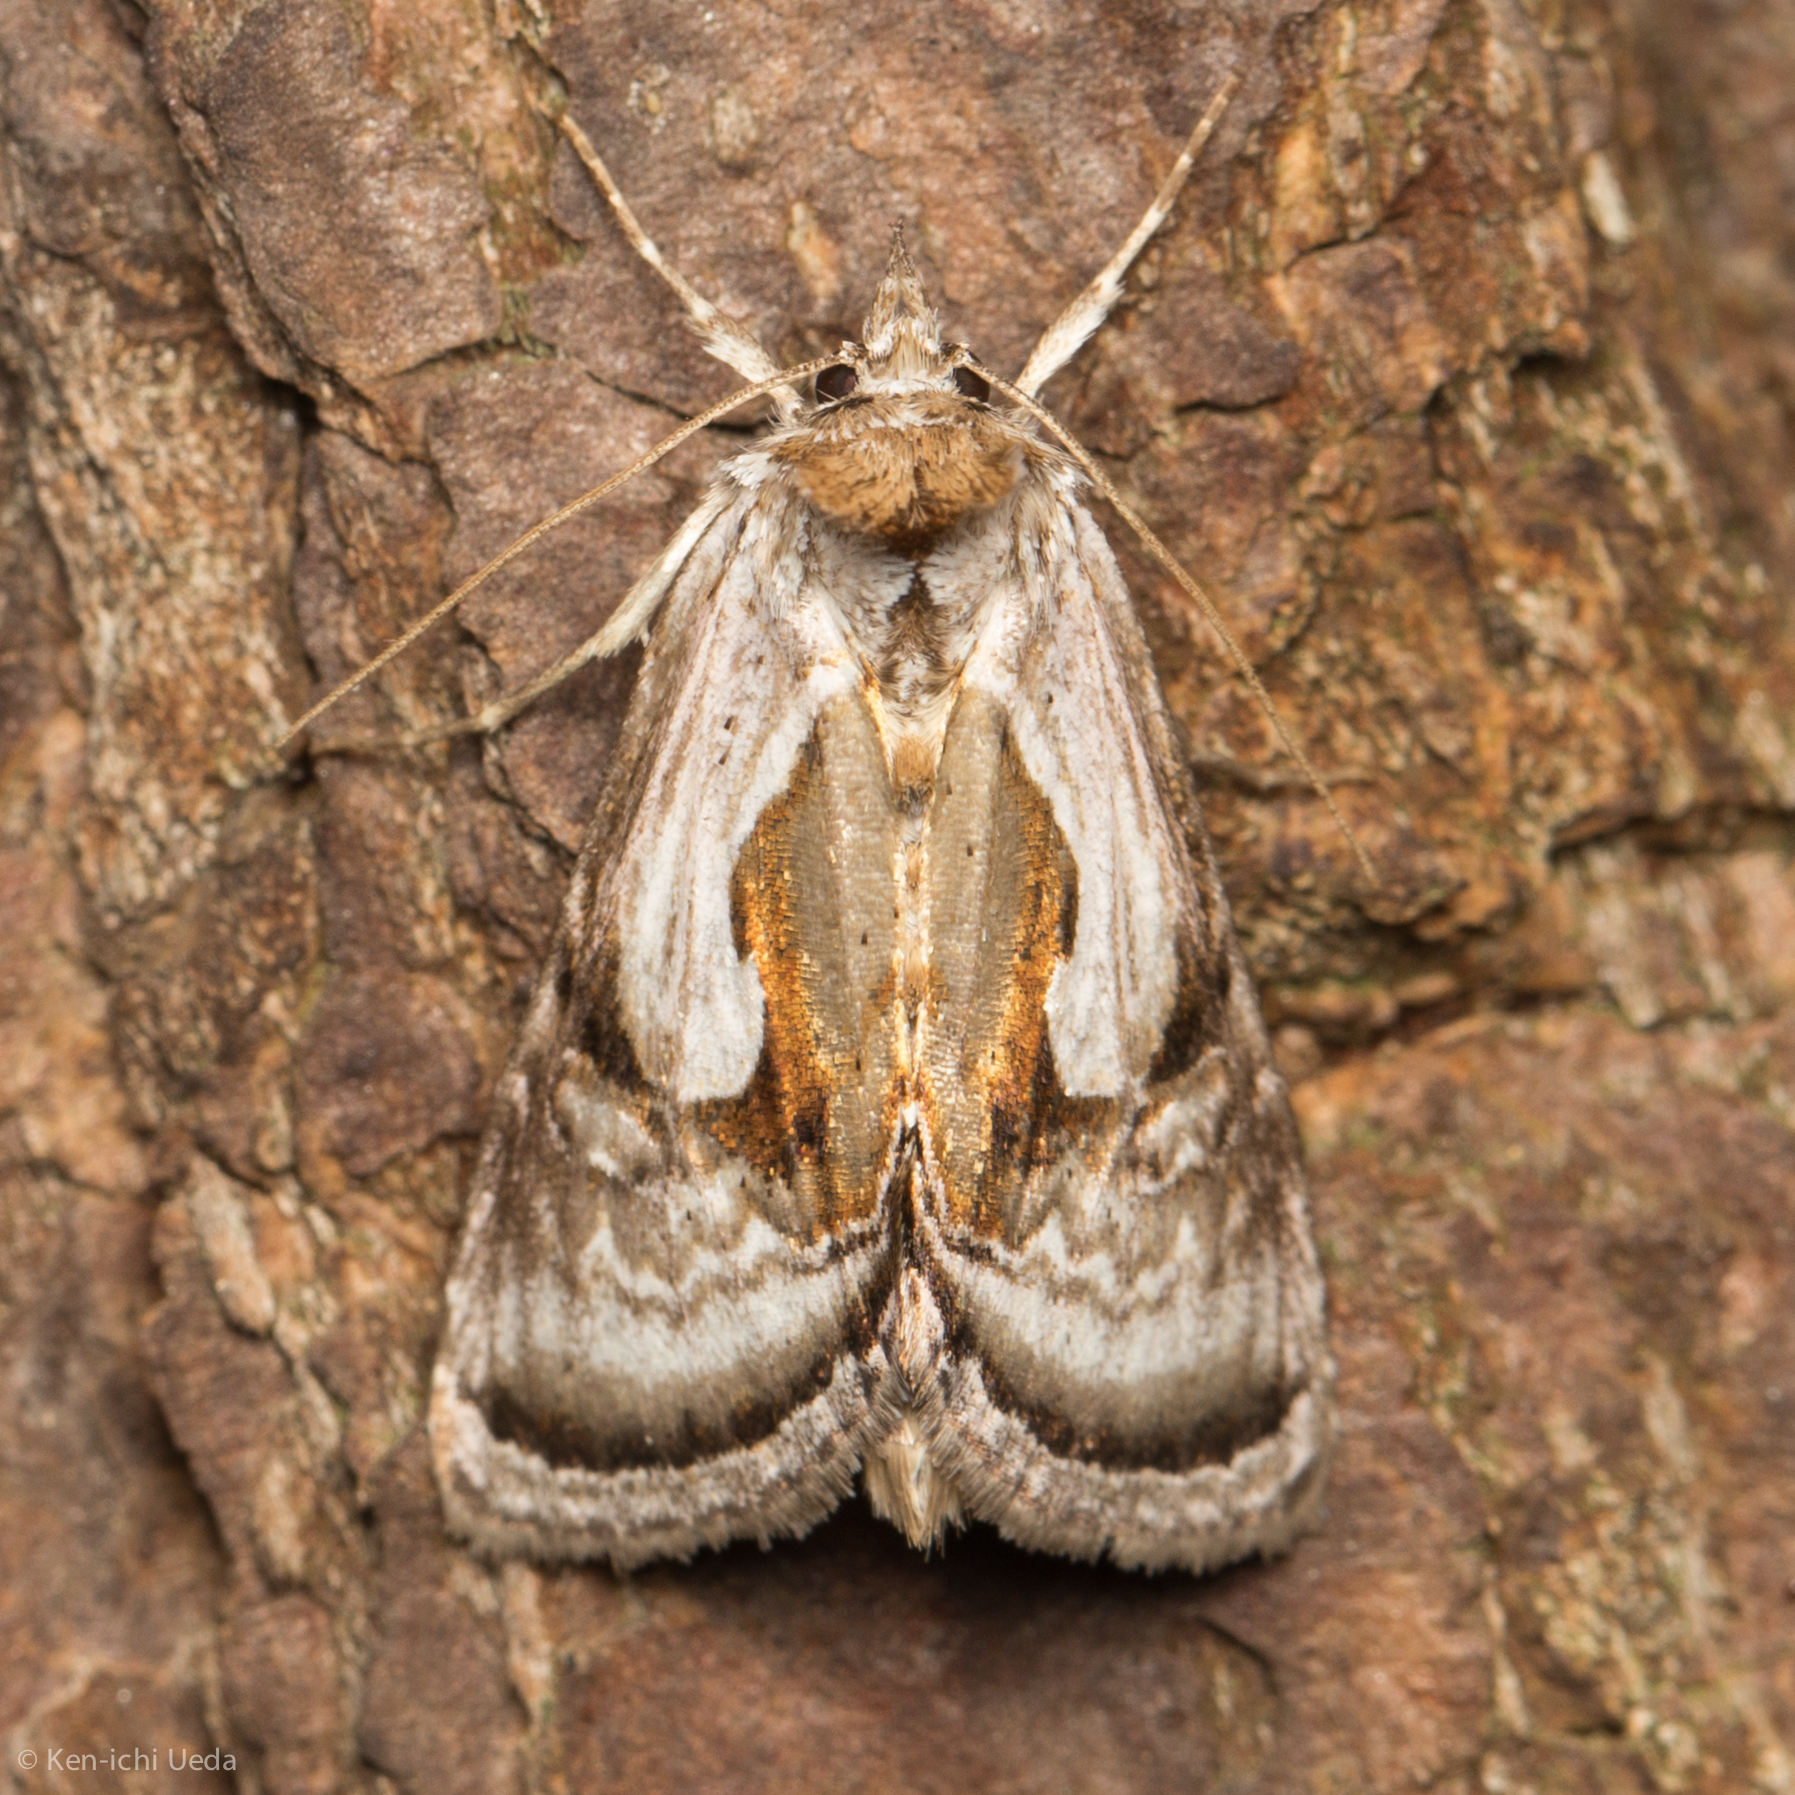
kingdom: Animalia
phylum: Arthropoda
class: Insecta
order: Lepidoptera
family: Noctuidae
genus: Chrysanympha
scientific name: Chrysanympha formosa
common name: Formosa looper moth
